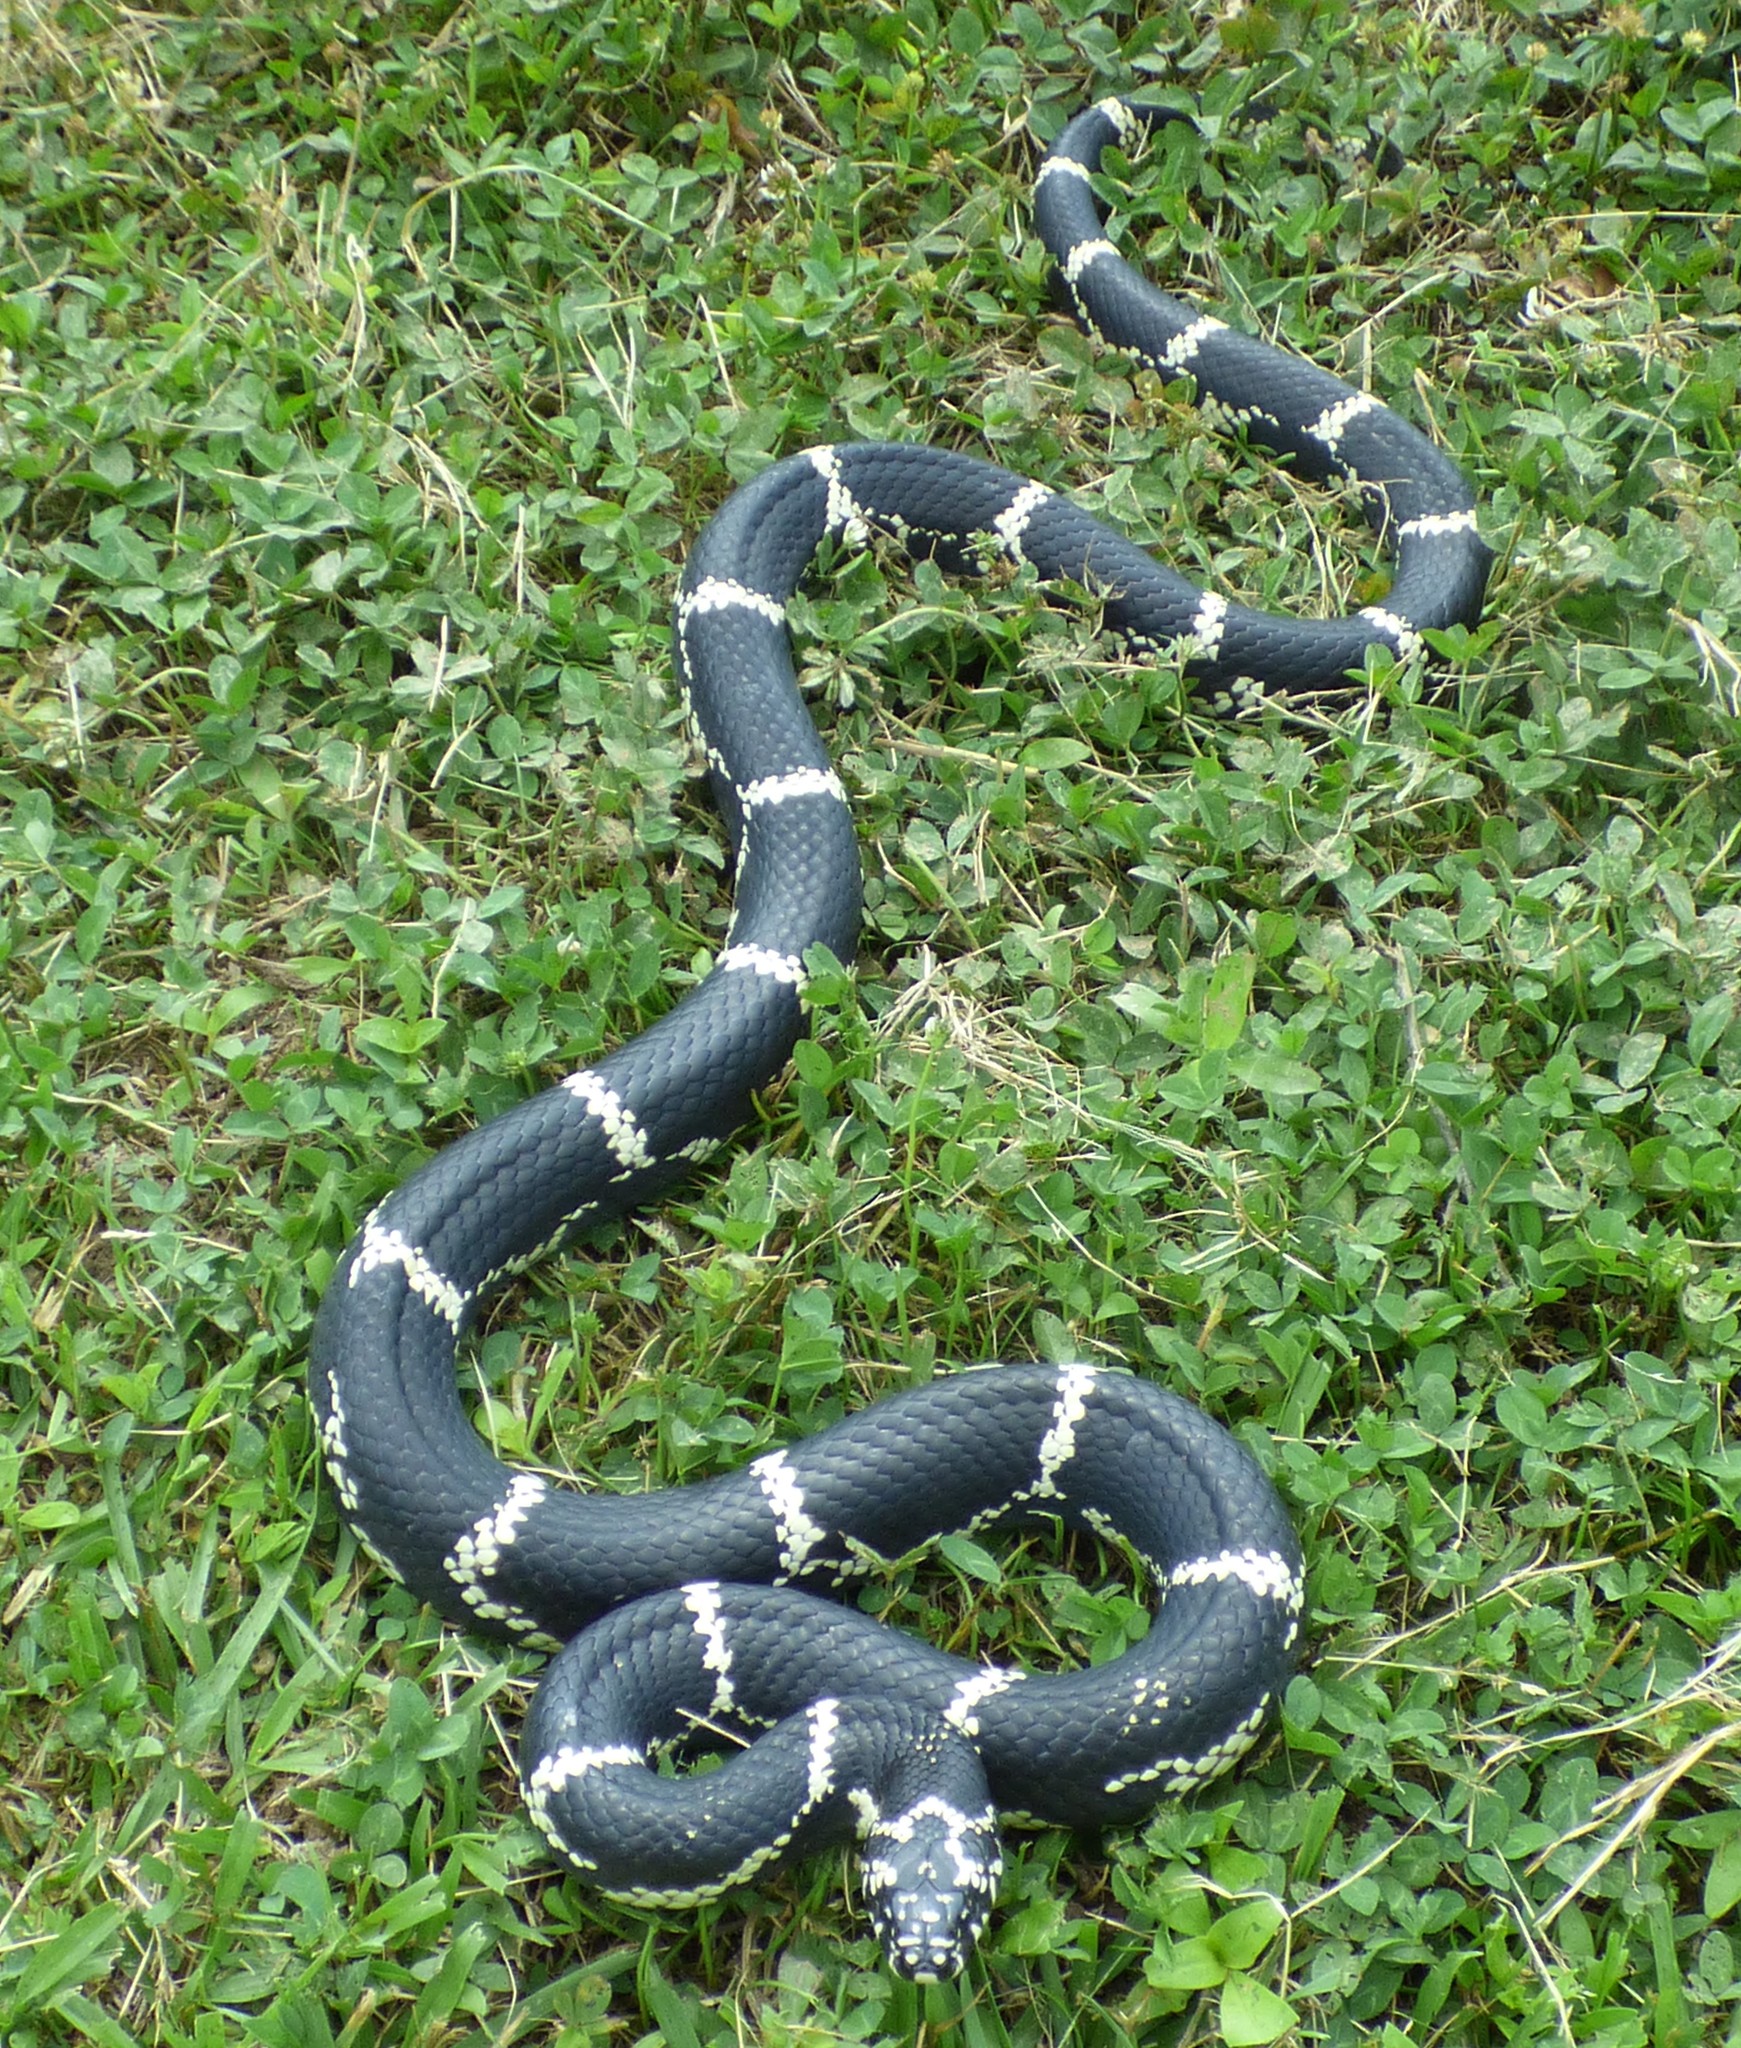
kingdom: Animalia
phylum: Chordata
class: Squamata
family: Colubridae
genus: Lampropeltis
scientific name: Lampropeltis getula
